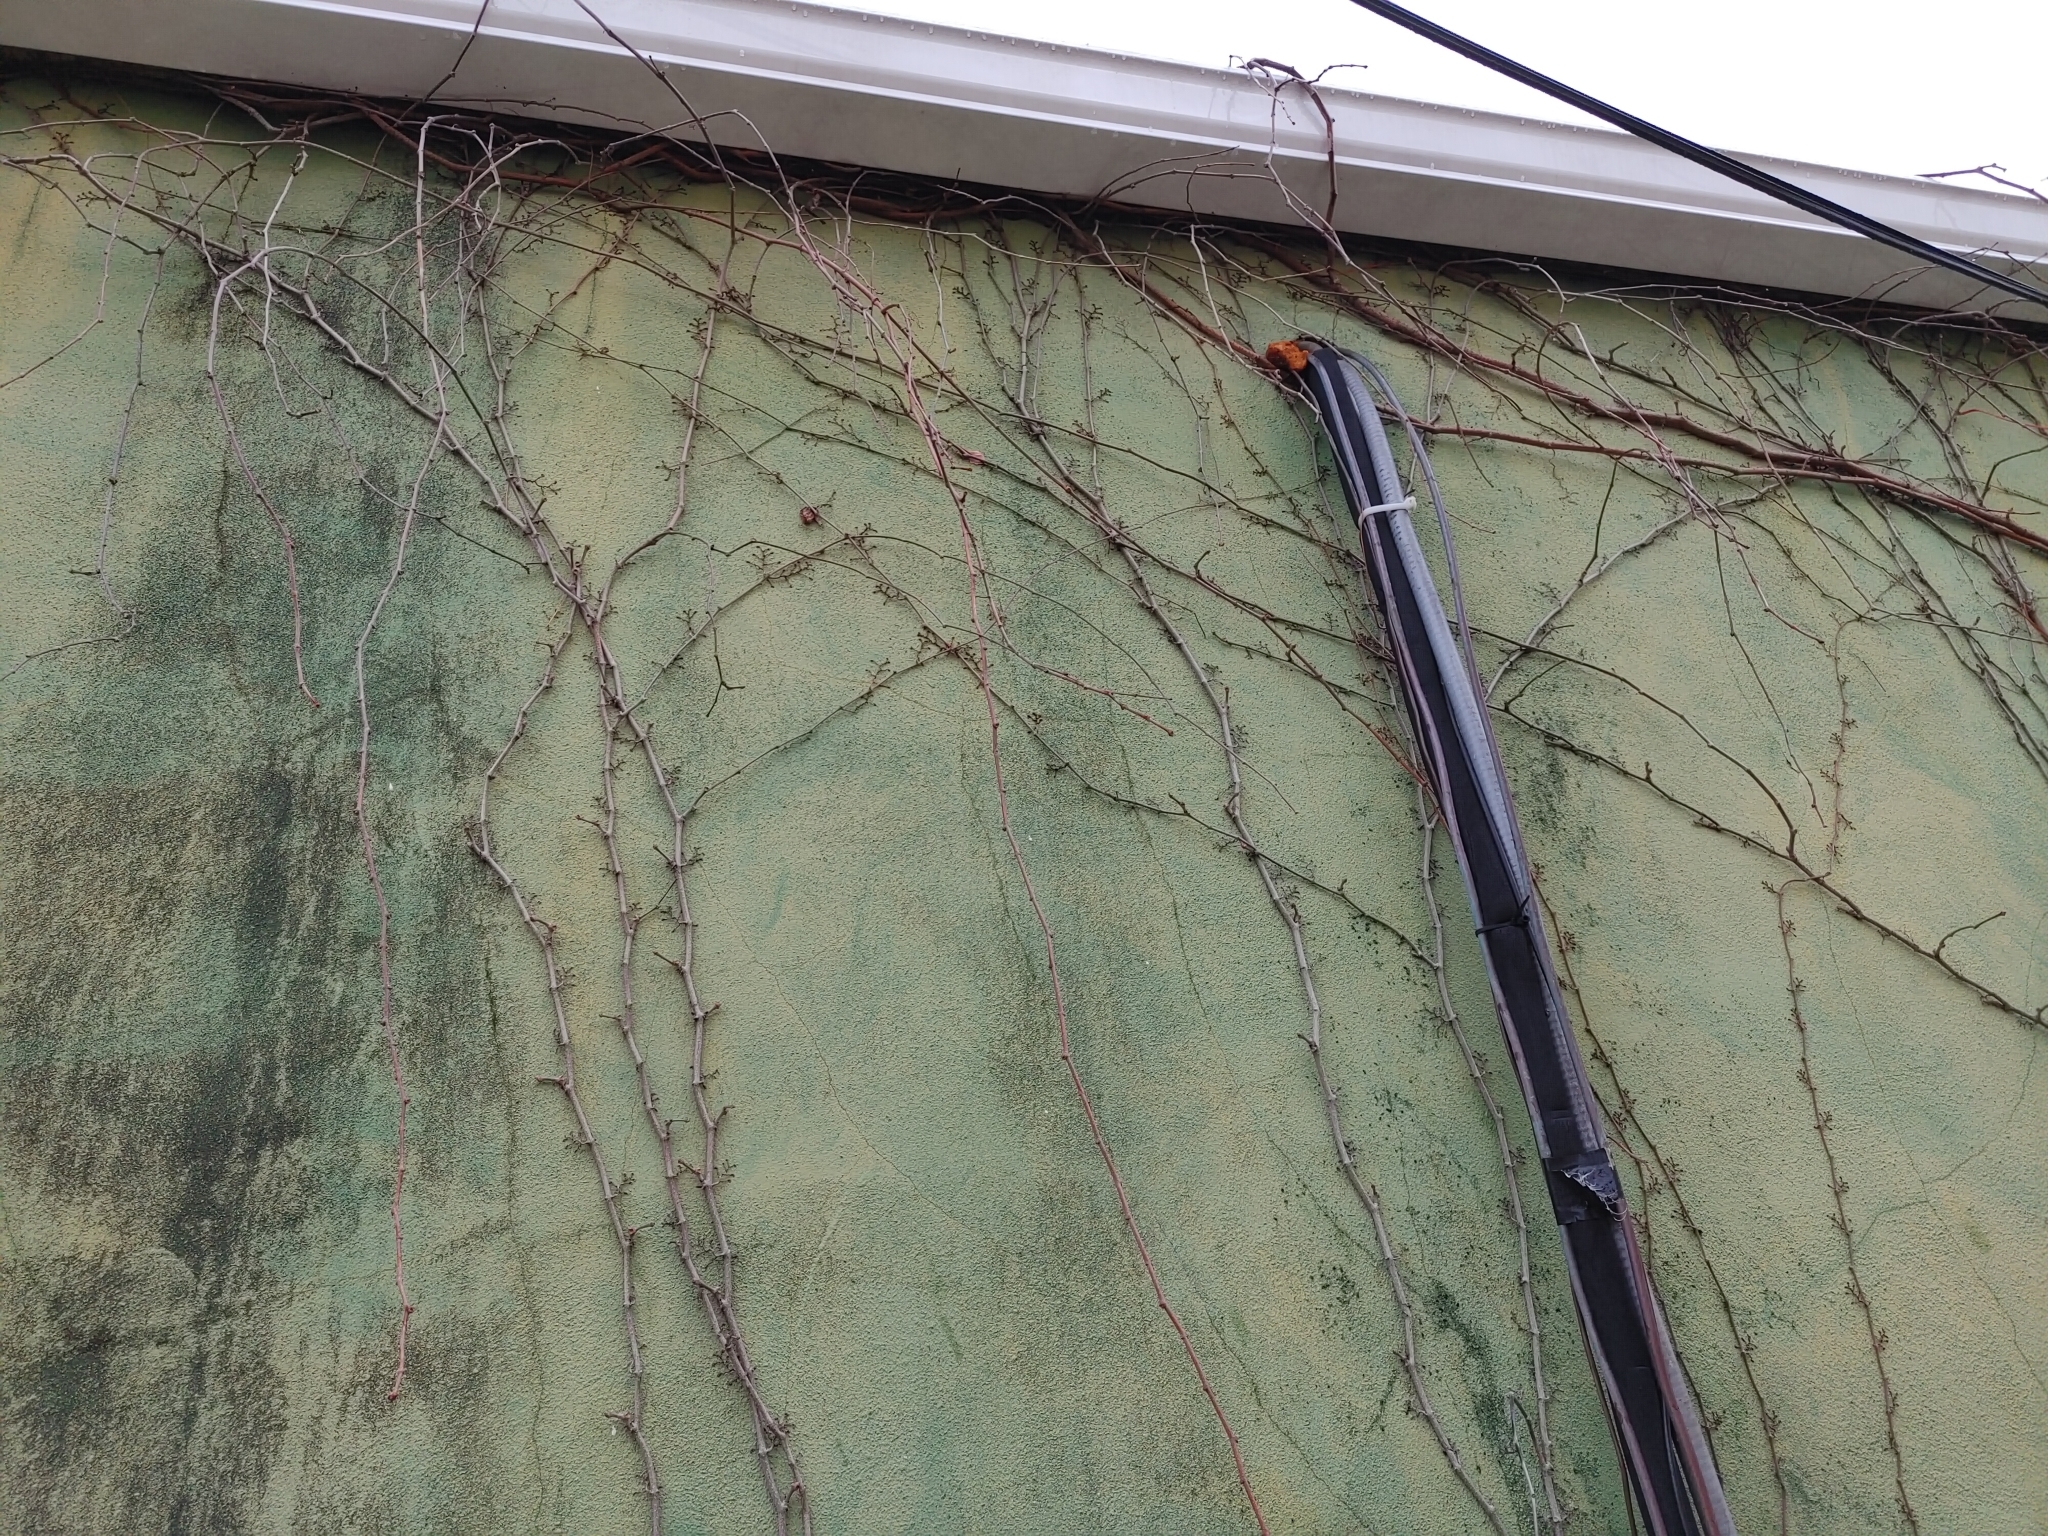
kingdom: Plantae
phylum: Tracheophyta
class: Magnoliopsida
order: Vitales
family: Vitaceae
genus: Parthenocissus
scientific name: Parthenocissus quinquefolia
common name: Virginia-creeper
